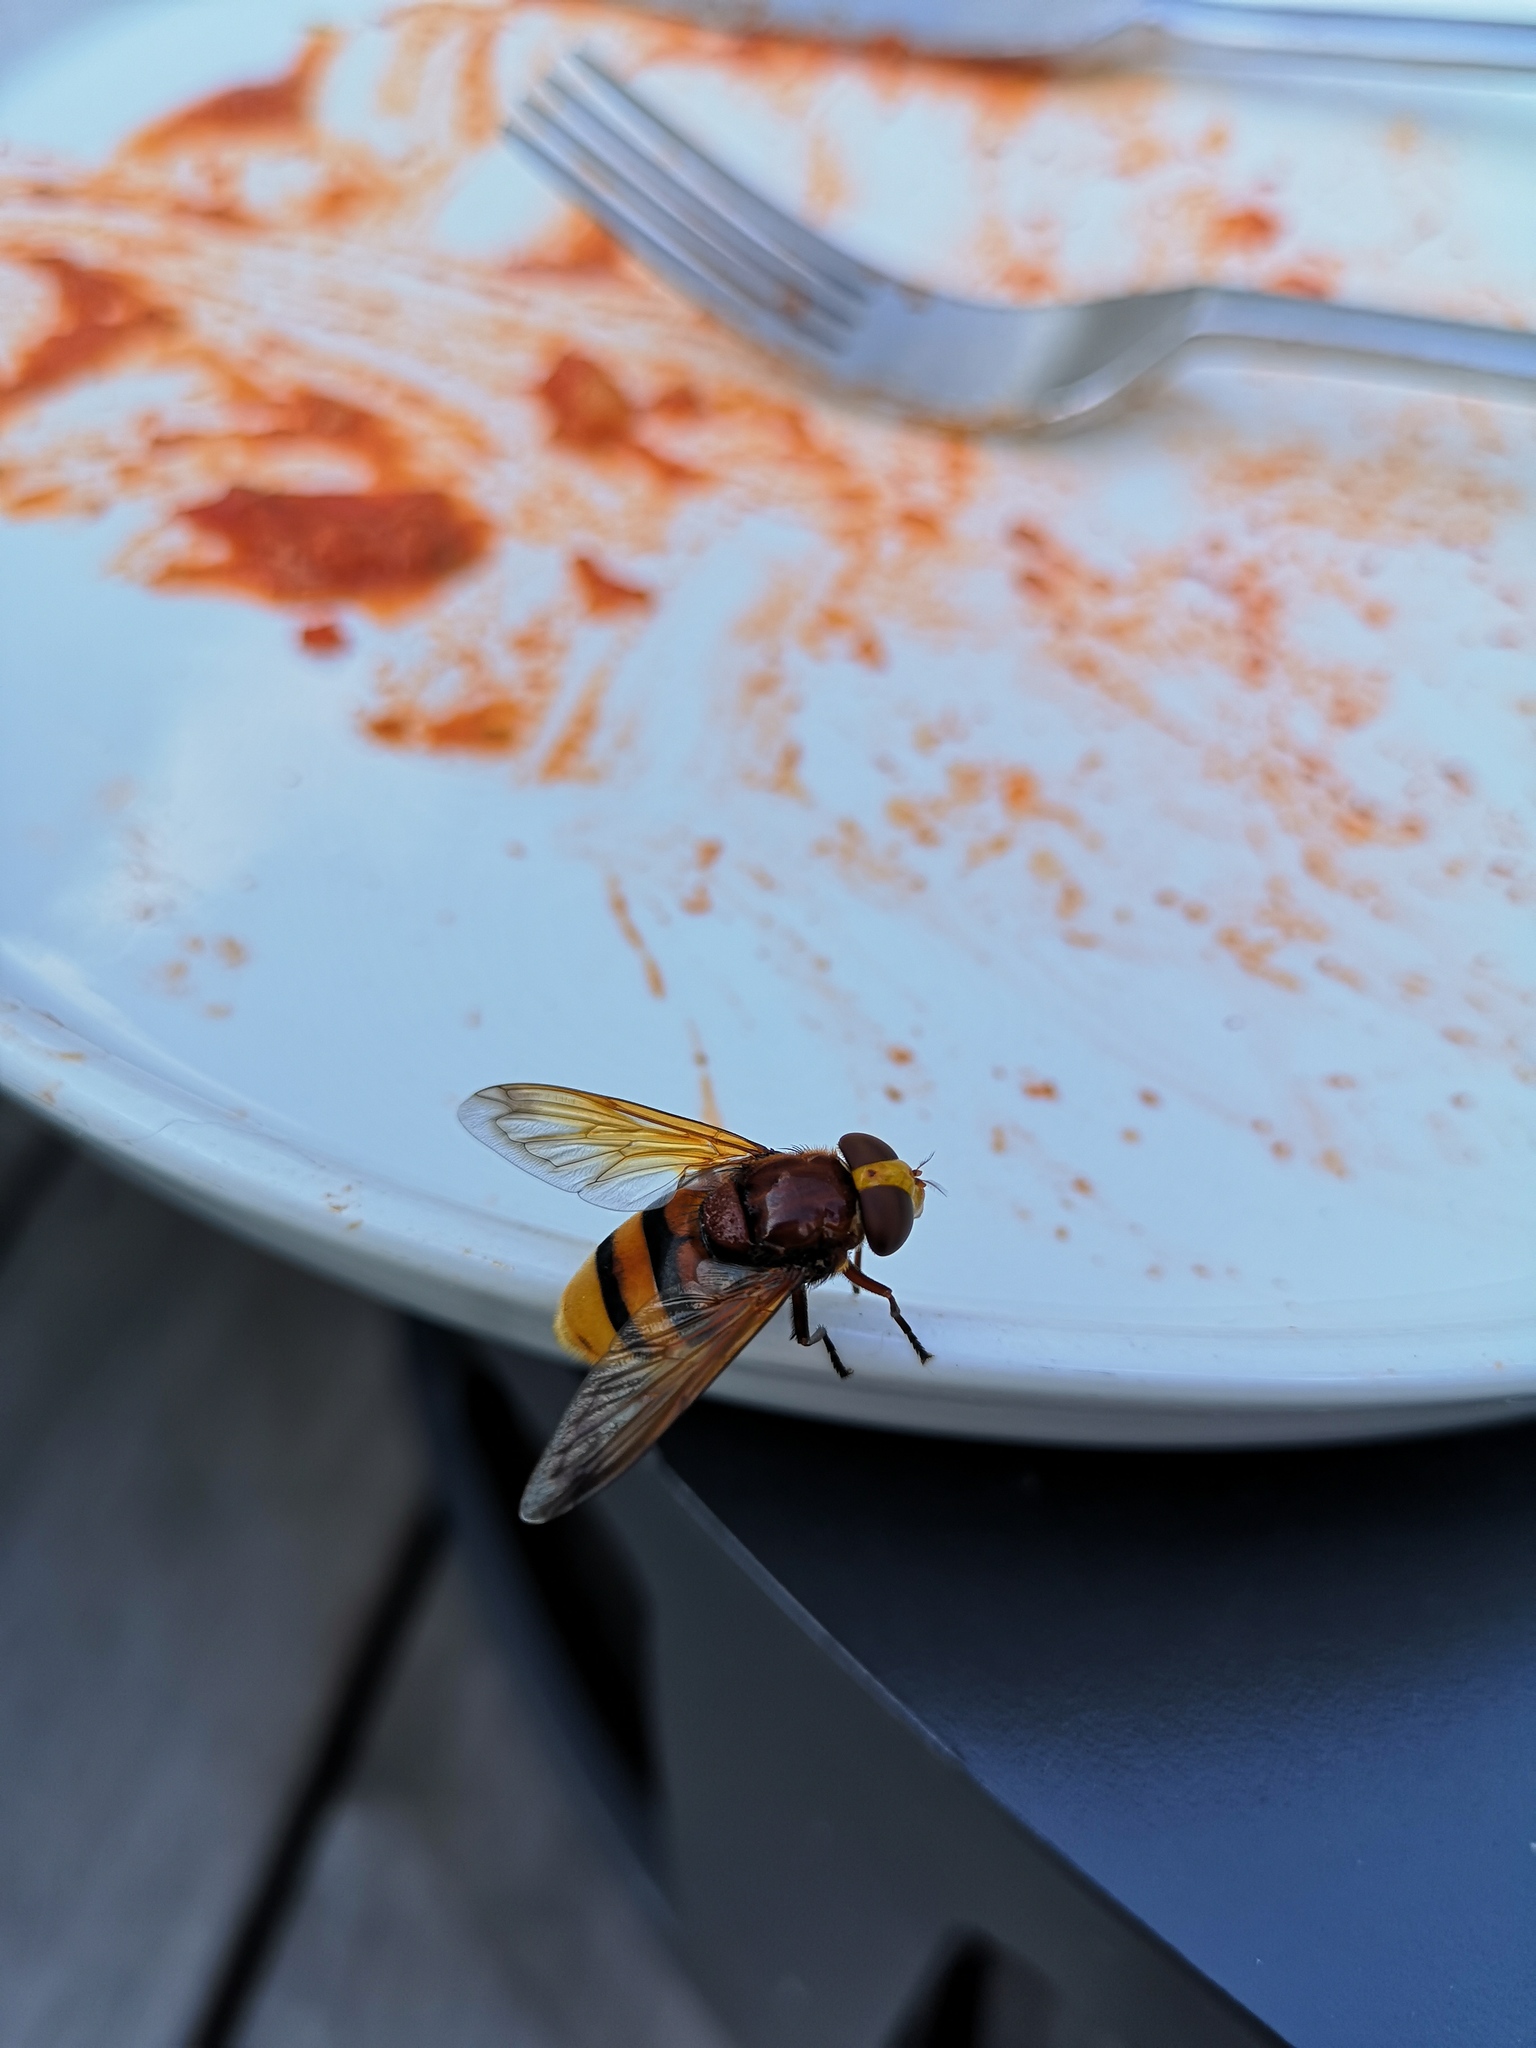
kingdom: Animalia
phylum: Arthropoda
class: Insecta
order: Diptera
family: Syrphidae
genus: Volucella
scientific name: Volucella zonaria
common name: Hornet hoverfly
